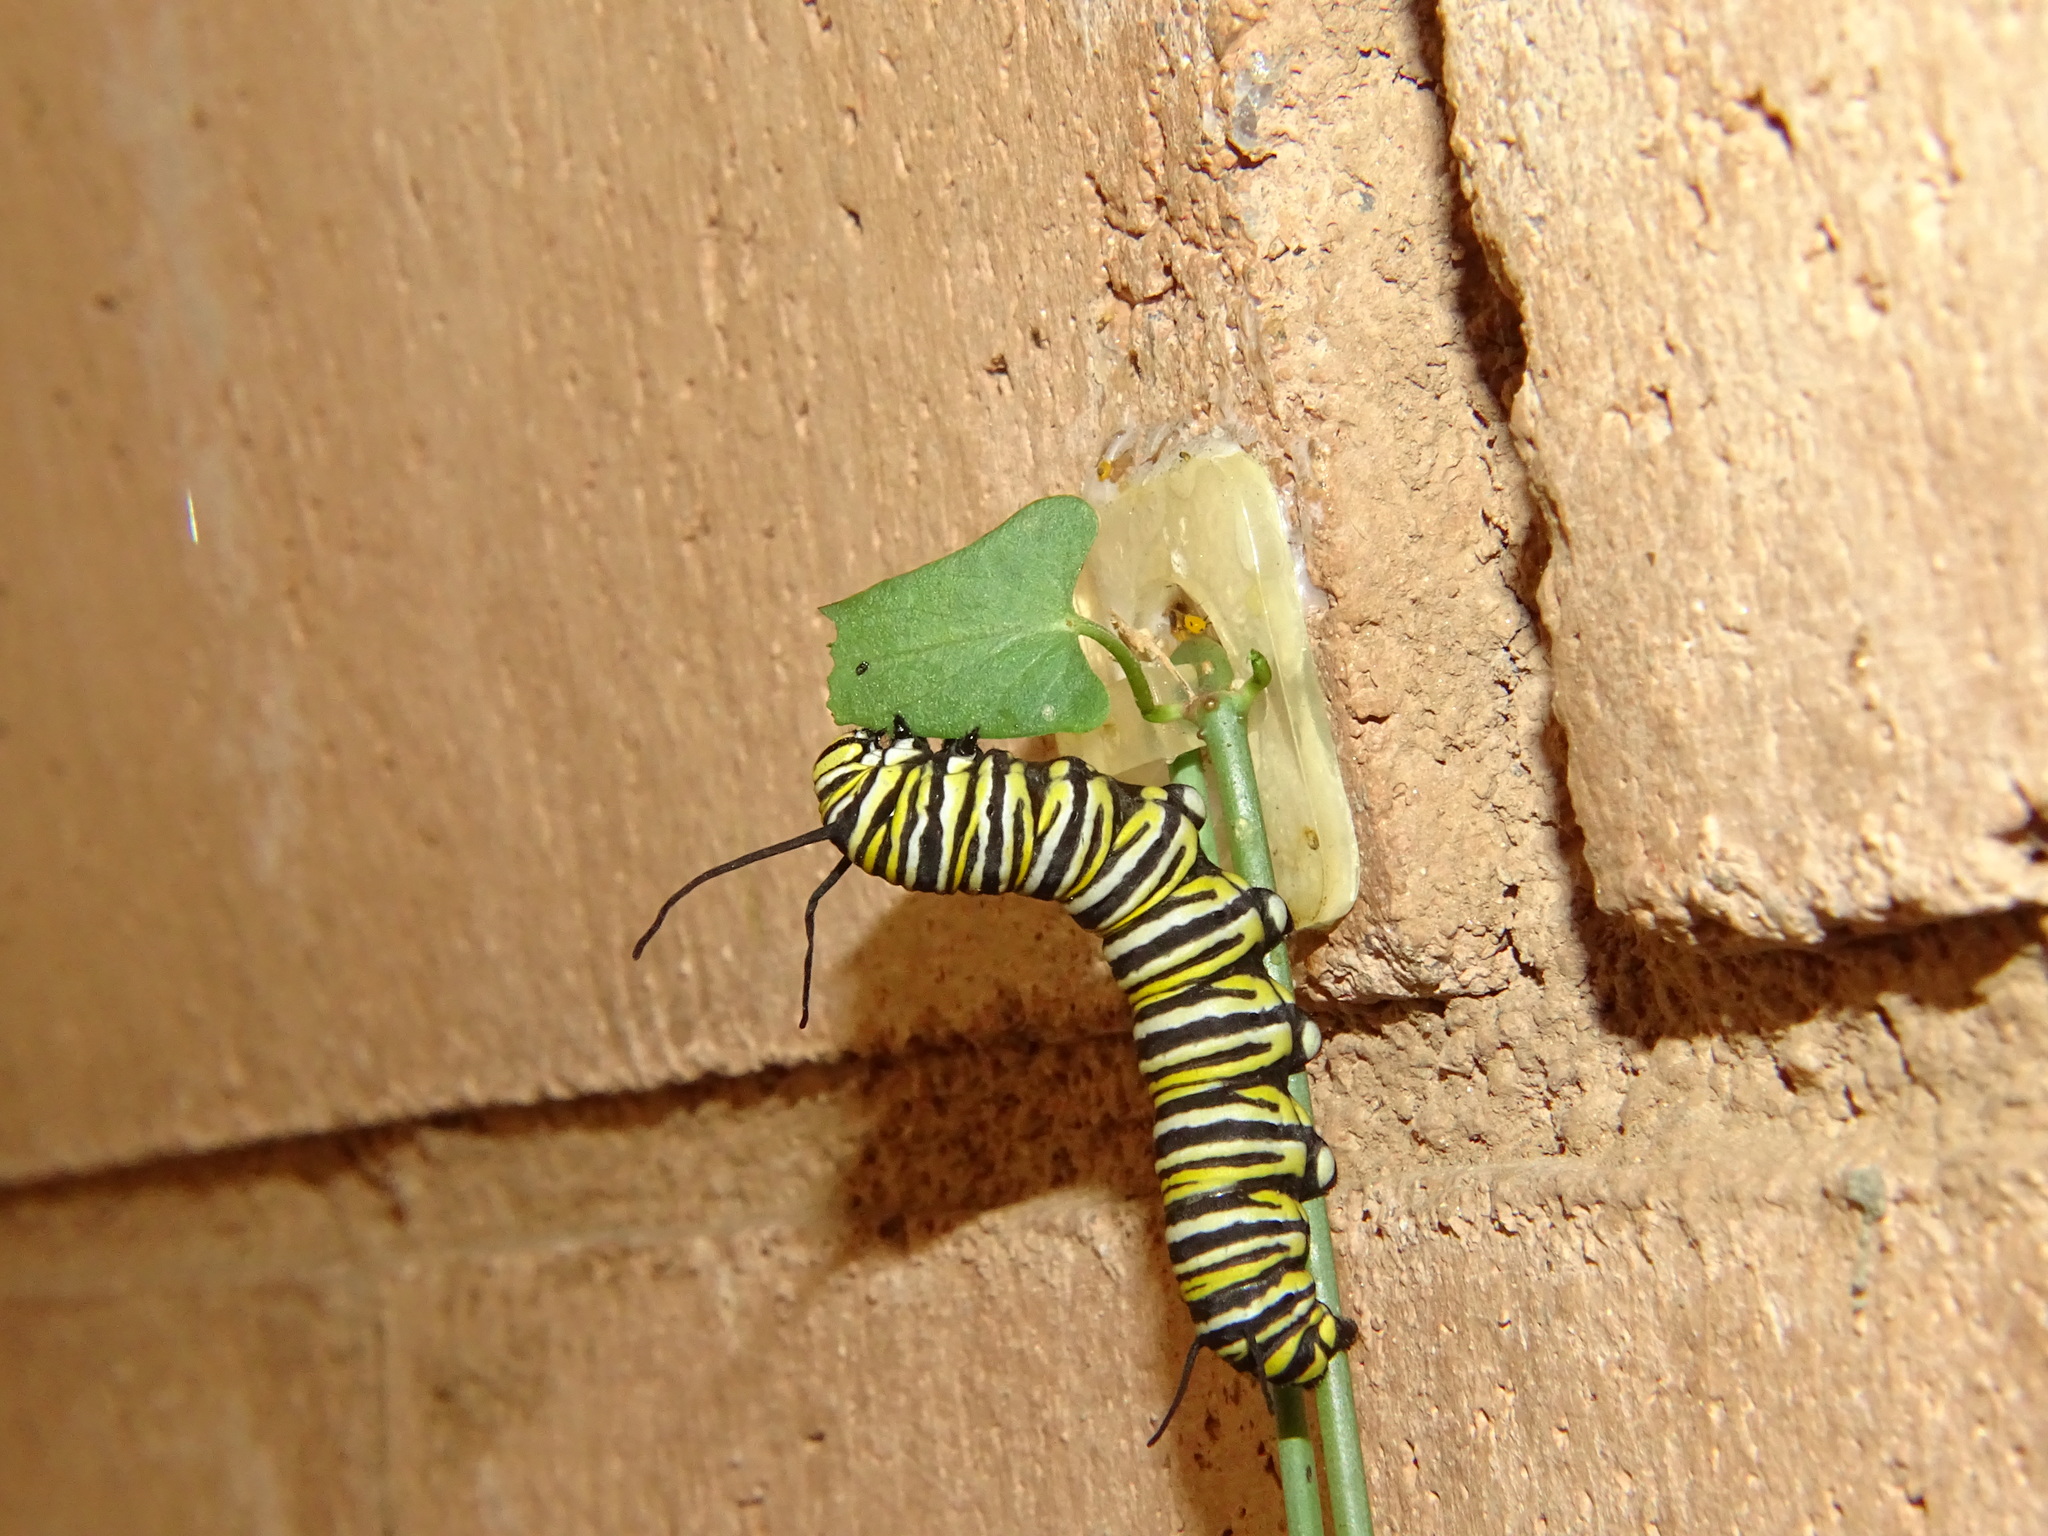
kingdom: Animalia
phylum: Arthropoda
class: Insecta
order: Lepidoptera
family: Nymphalidae
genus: Danaus
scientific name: Danaus plexippus
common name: Monarch
